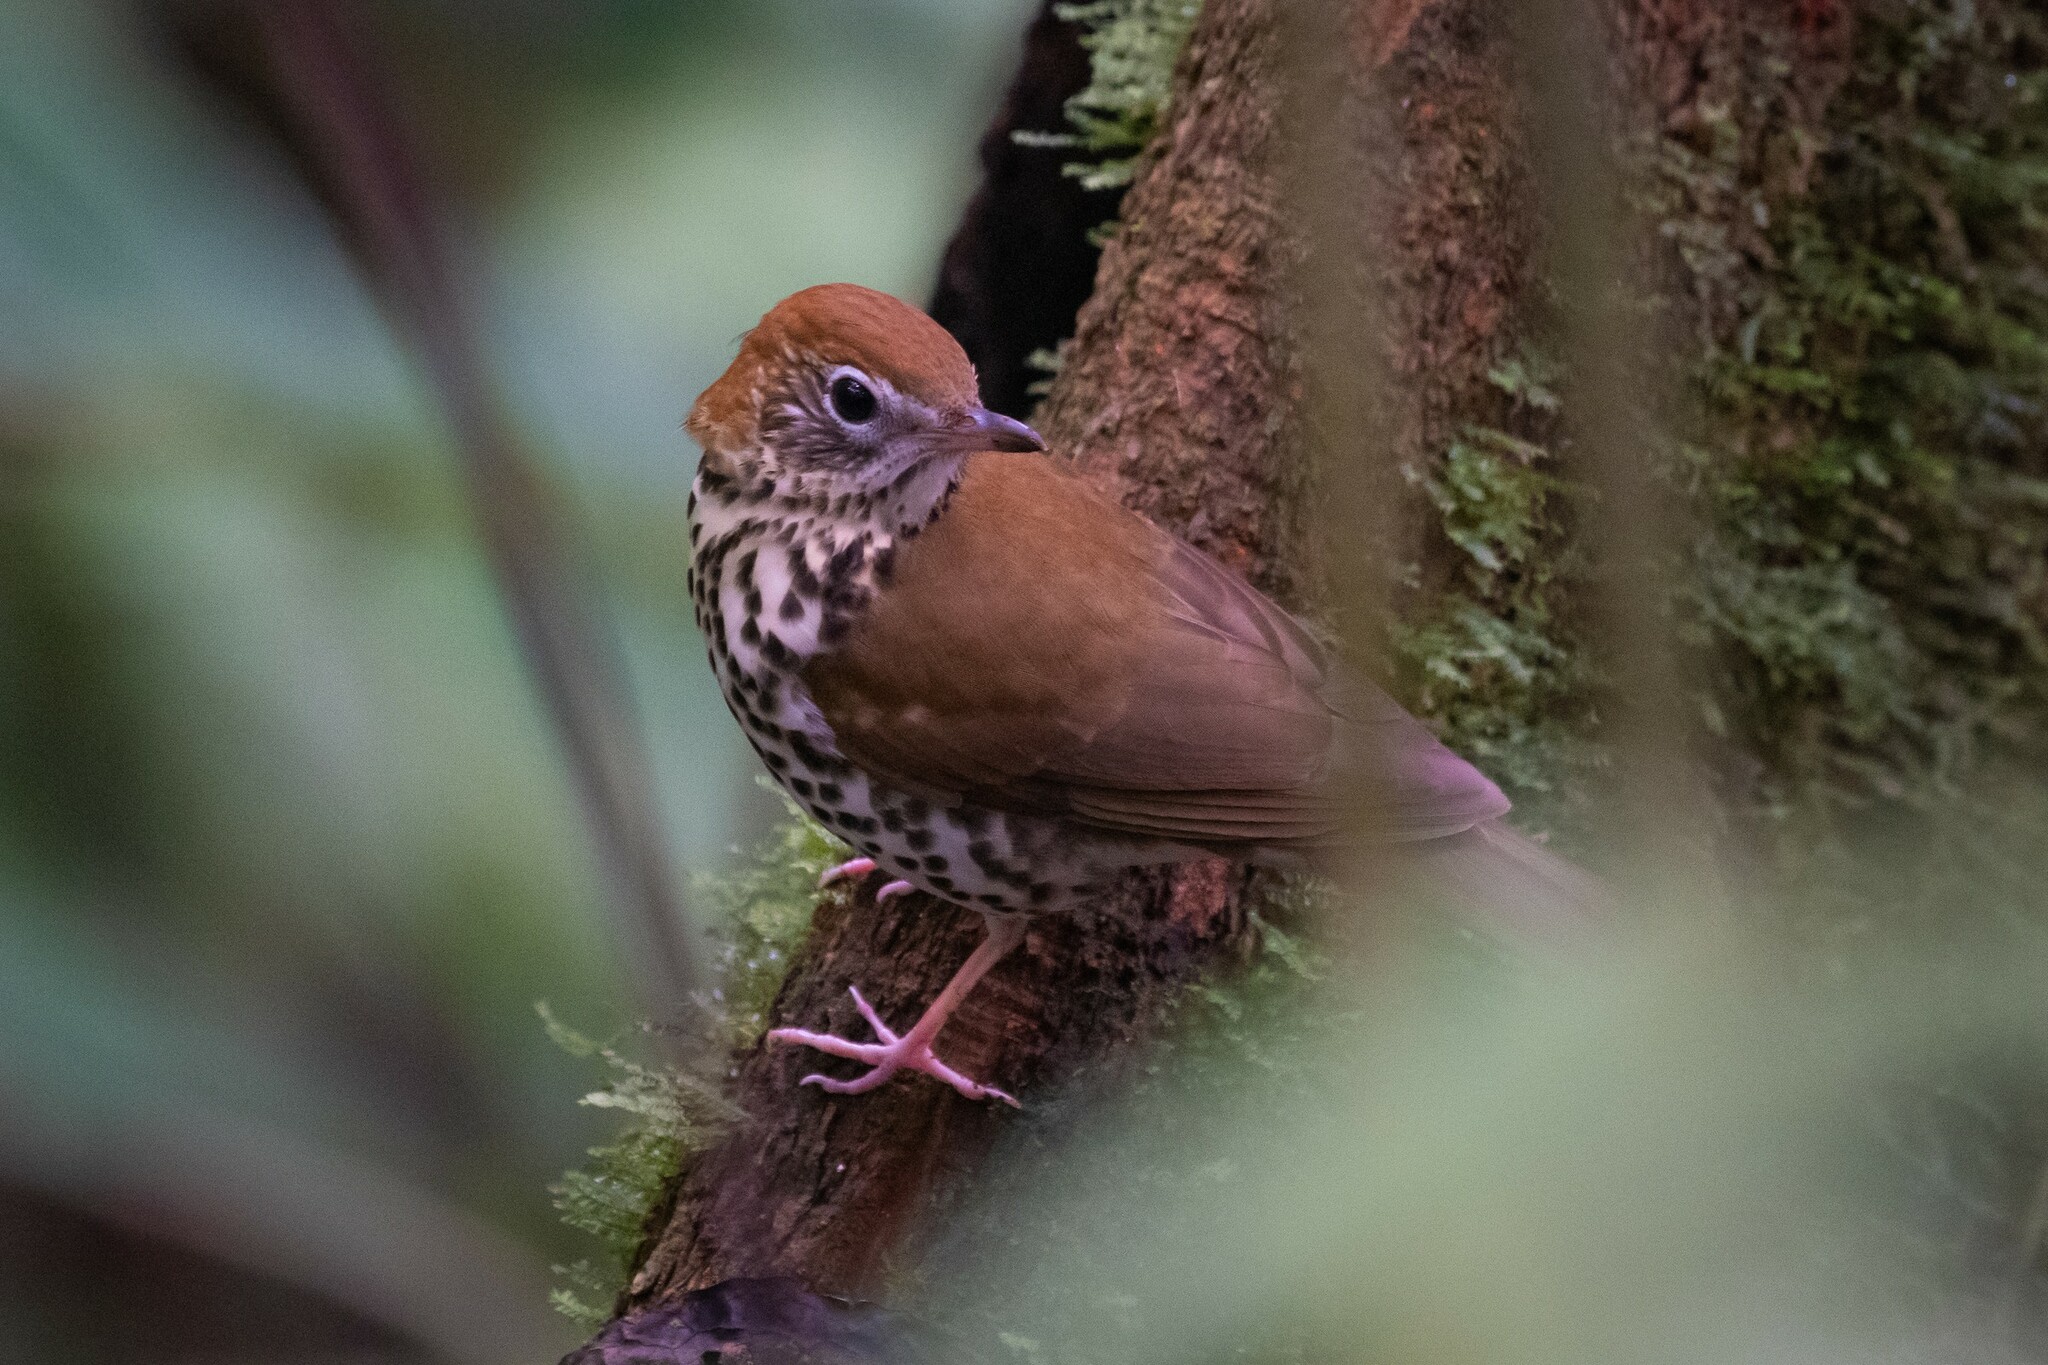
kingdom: Animalia
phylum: Chordata
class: Aves
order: Passeriformes
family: Turdidae
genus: Hylocichla
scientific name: Hylocichla mustelina
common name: Wood thrush
